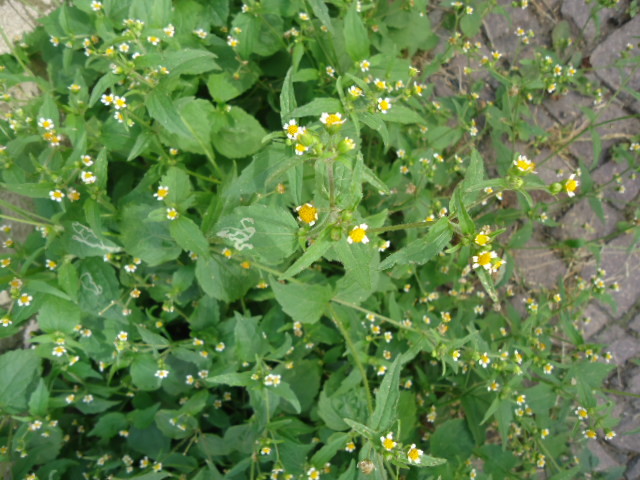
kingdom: Plantae
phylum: Tracheophyta
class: Magnoliopsida
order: Asterales
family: Asteraceae
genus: Galinsoga
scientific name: Galinsoga quadriradiata
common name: Shaggy soldier
